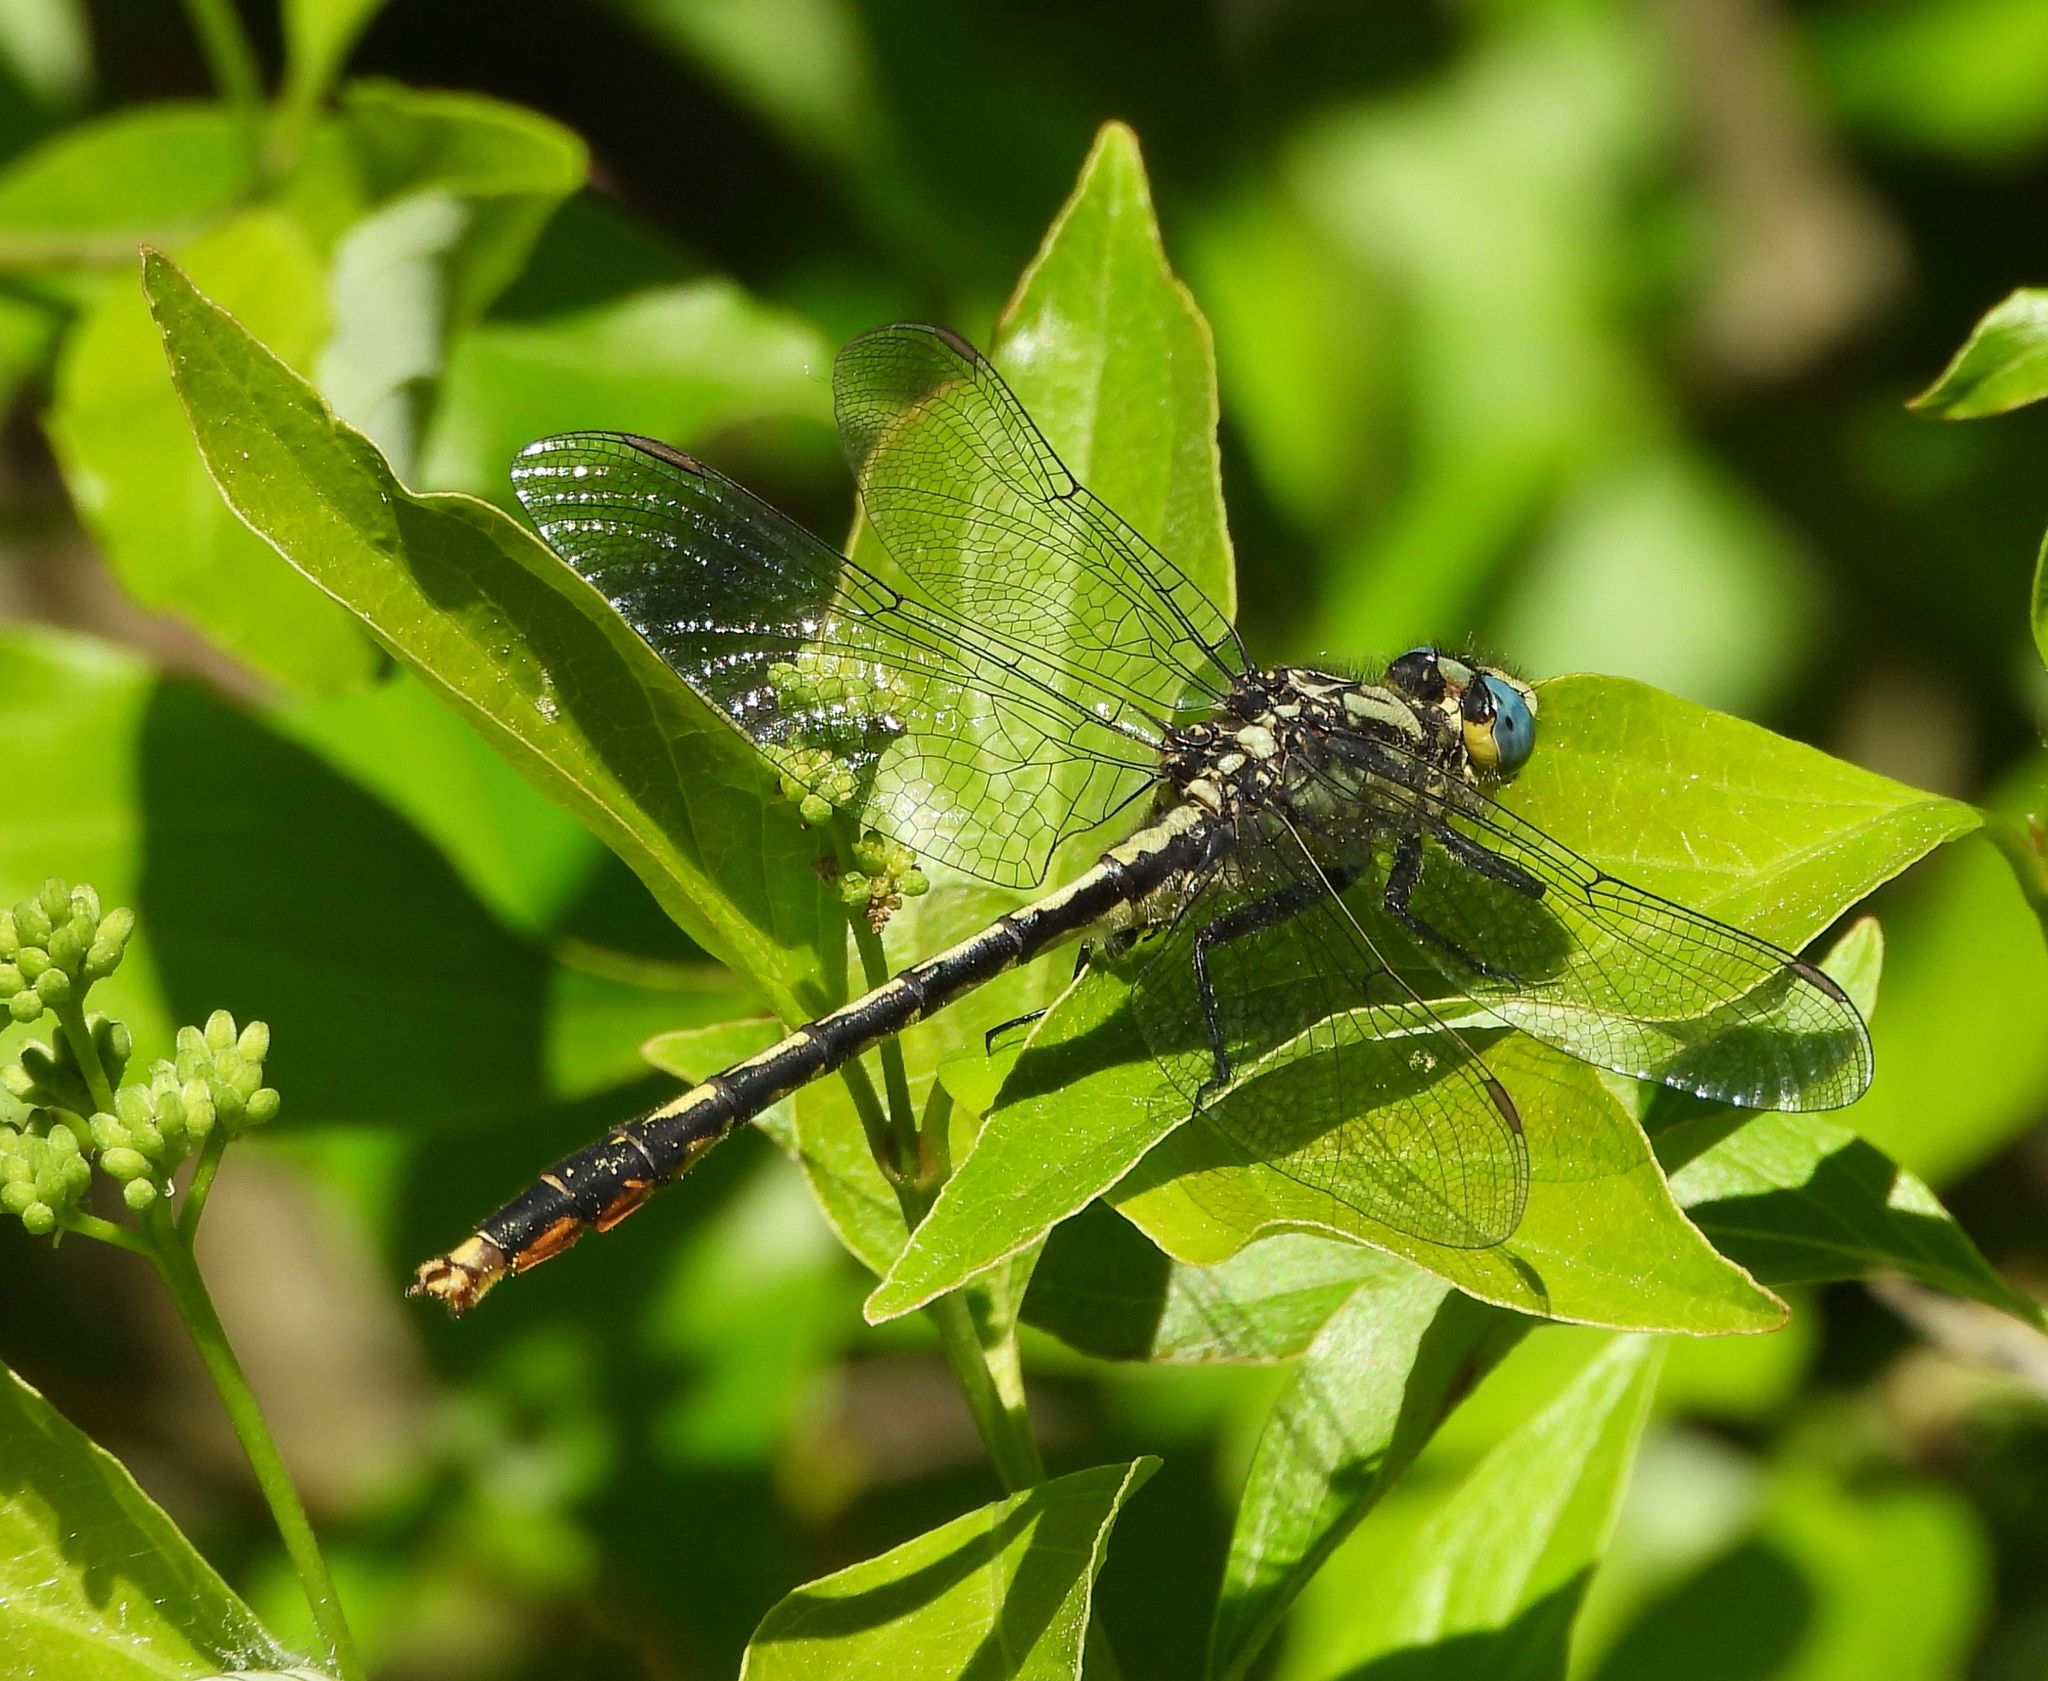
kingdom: Animalia
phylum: Arthropoda
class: Insecta
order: Odonata
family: Gomphidae
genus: Arigomphus
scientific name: Arigomphus furcifer
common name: Lilypad clubtail
